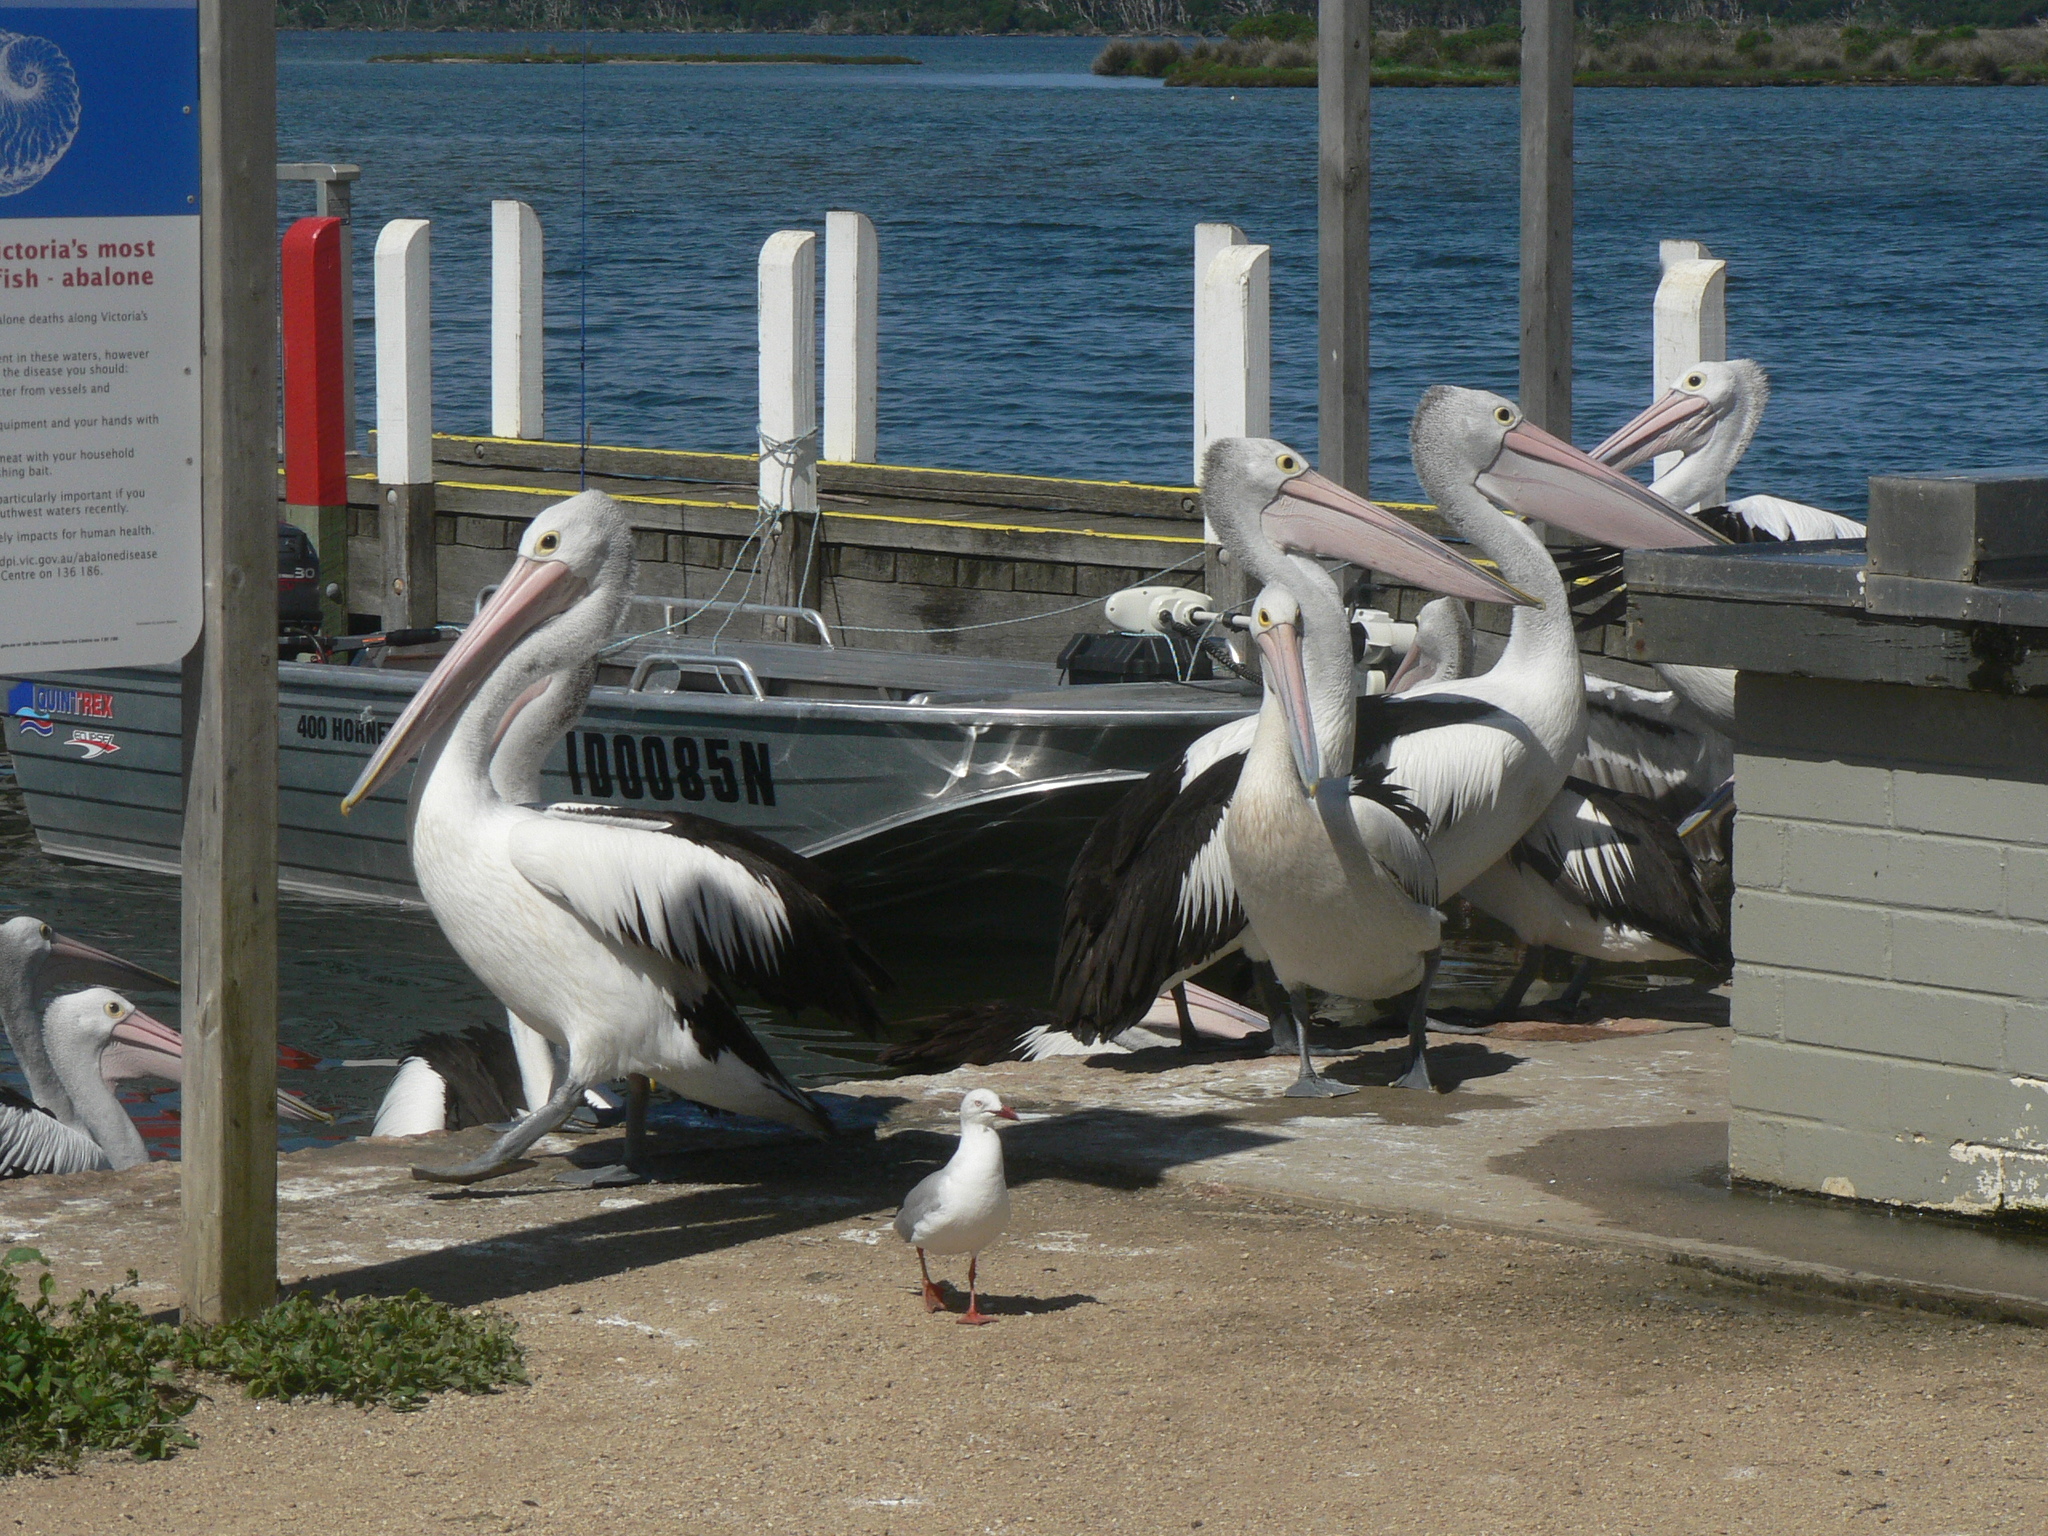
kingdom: Animalia
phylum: Chordata
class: Aves
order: Pelecaniformes
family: Pelecanidae
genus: Pelecanus
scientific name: Pelecanus conspicillatus
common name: Australian pelican
